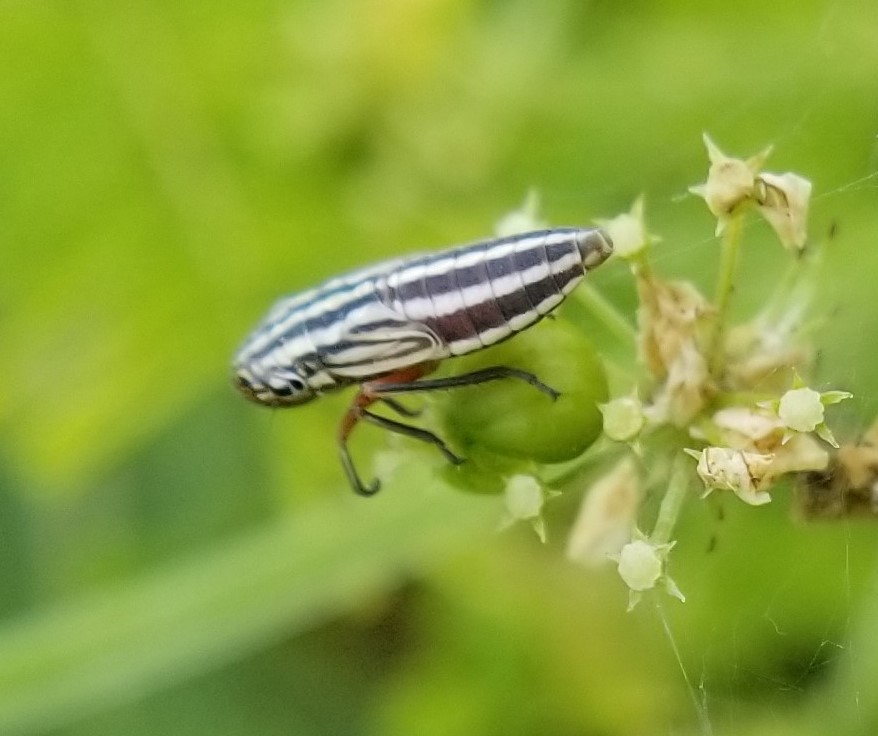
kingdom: Animalia
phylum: Arthropoda
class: Insecta
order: Hemiptera
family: Cicadellidae
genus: Cuerna
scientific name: Cuerna costalis
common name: Lateral-lined sharpshooter
